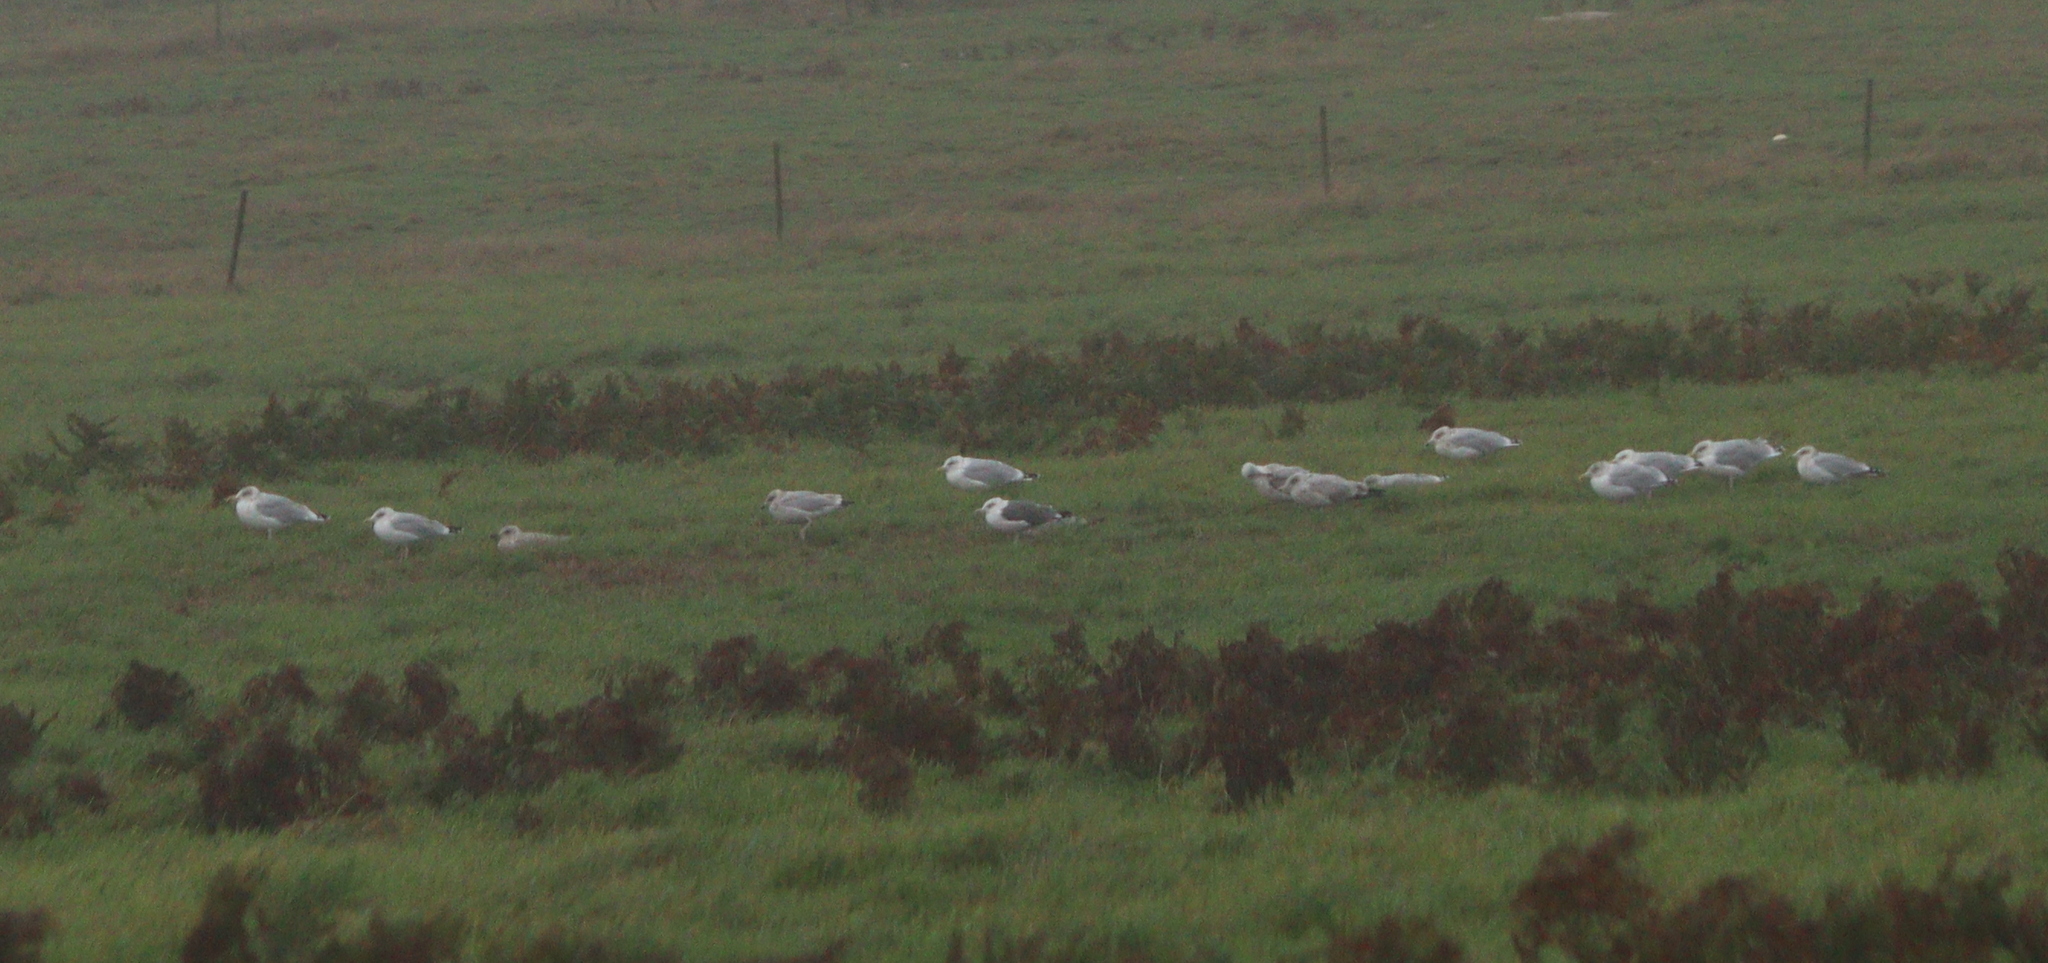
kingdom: Animalia
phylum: Chordata
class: Aves
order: Charadriiformes
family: Laridae
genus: Larus
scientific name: Larus argentatus
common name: Herring gull
